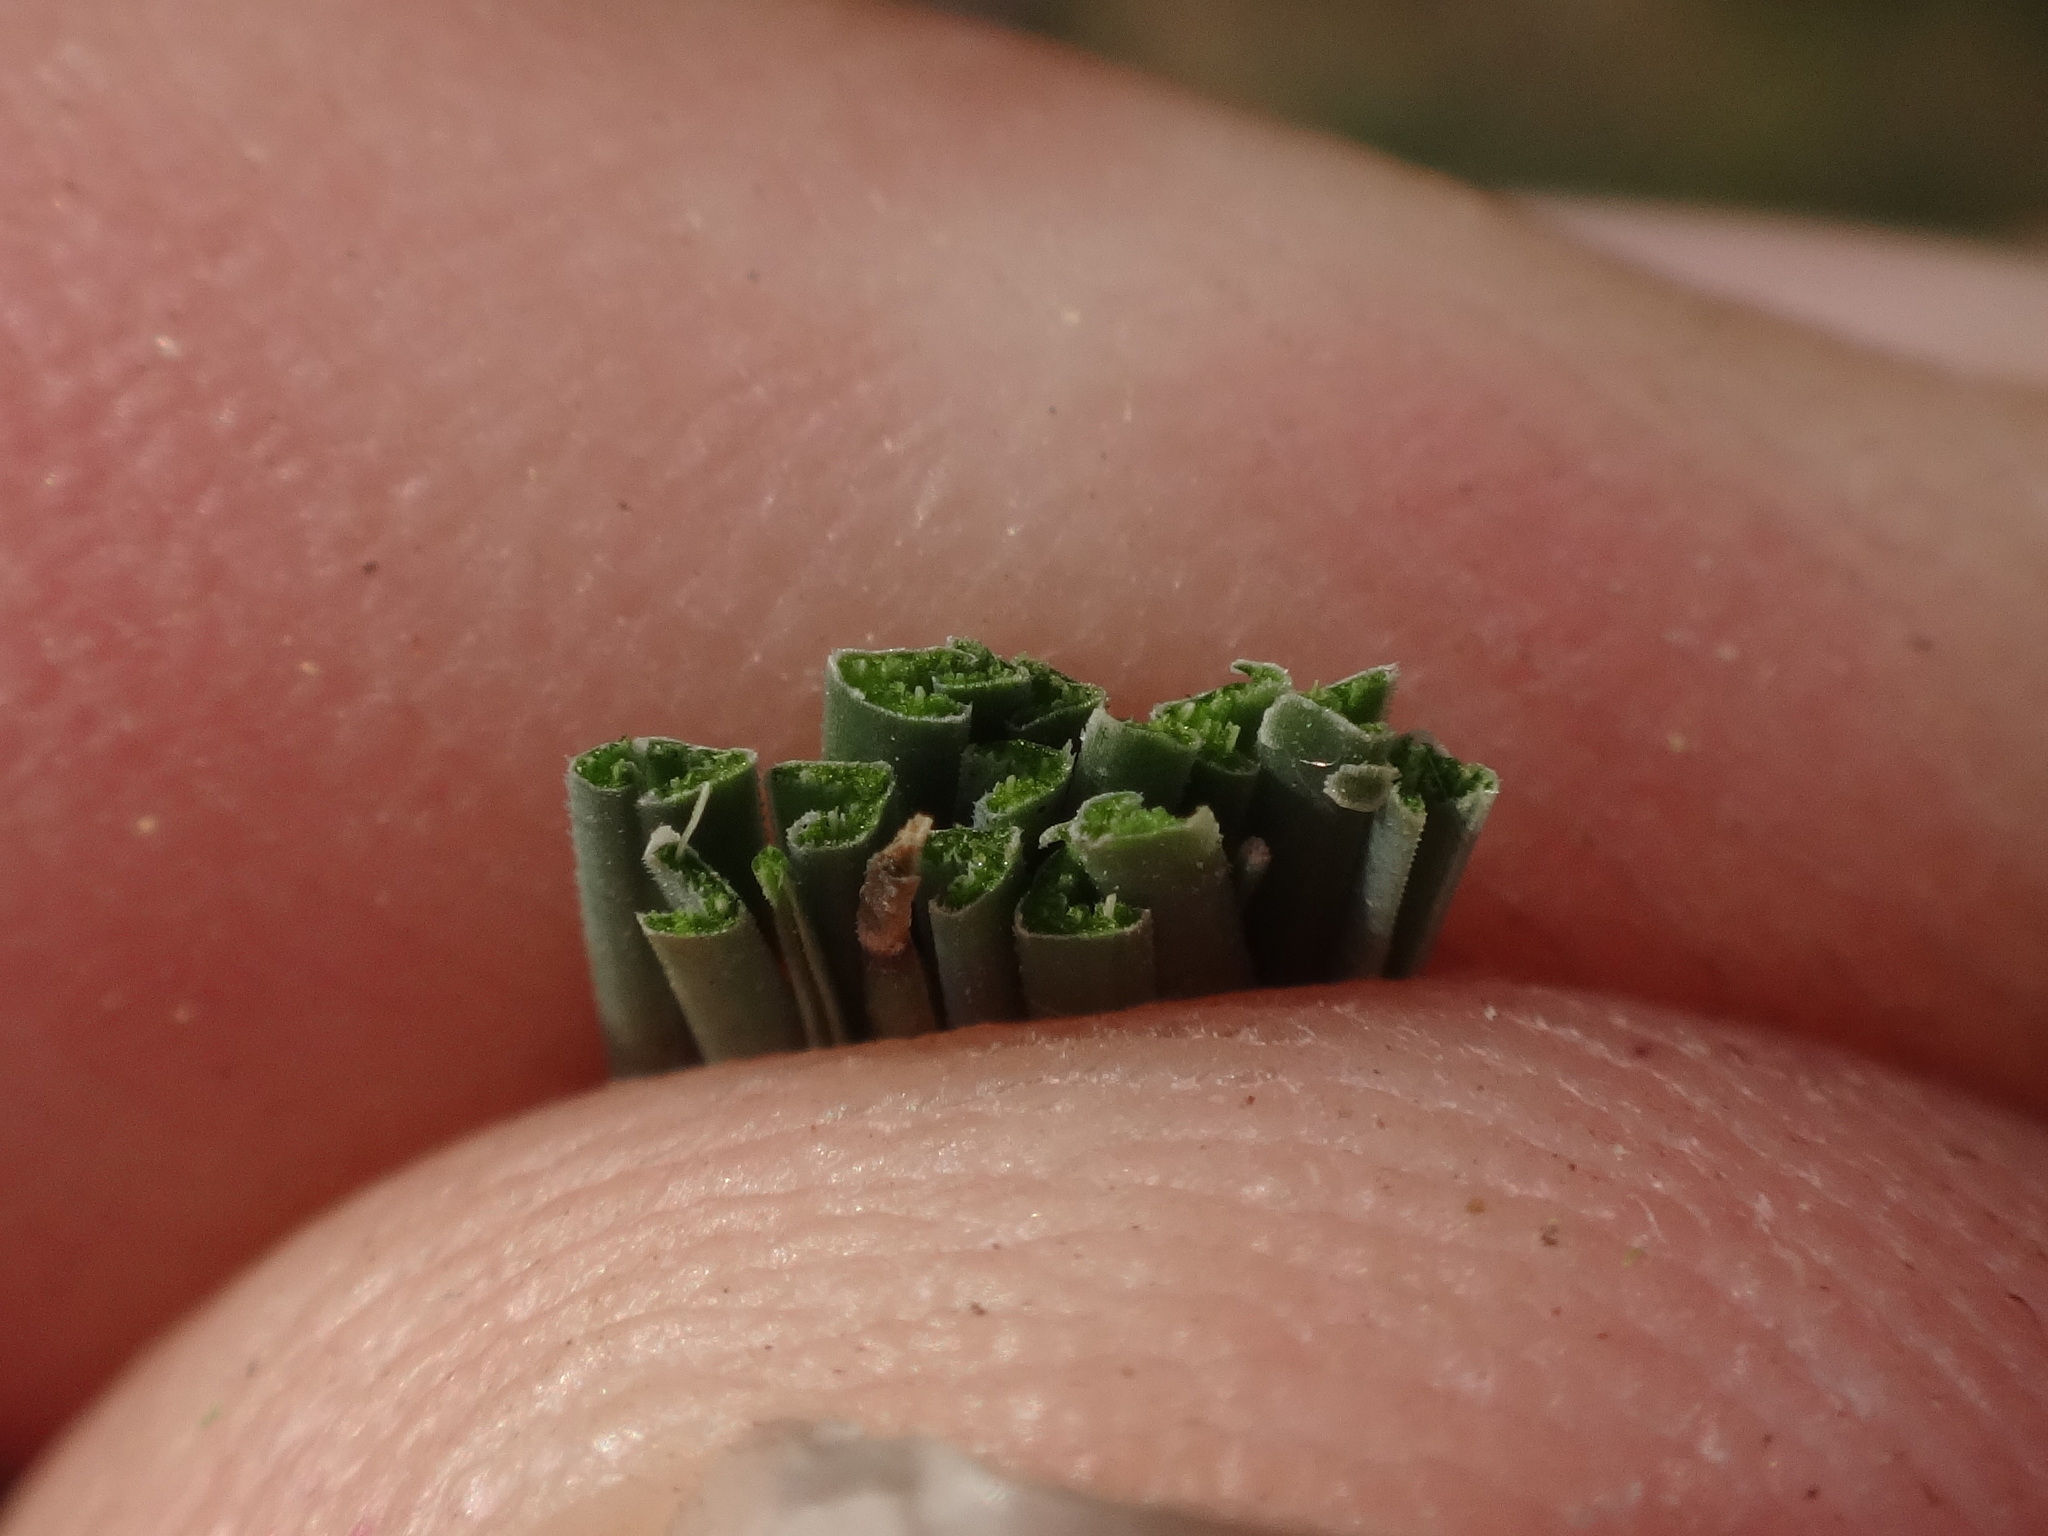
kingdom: Plantae
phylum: Tracheophyta
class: Liliopsida
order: Poales
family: Poaceae
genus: Festuca
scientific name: Festuca trachyphylla
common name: Hard fescue
